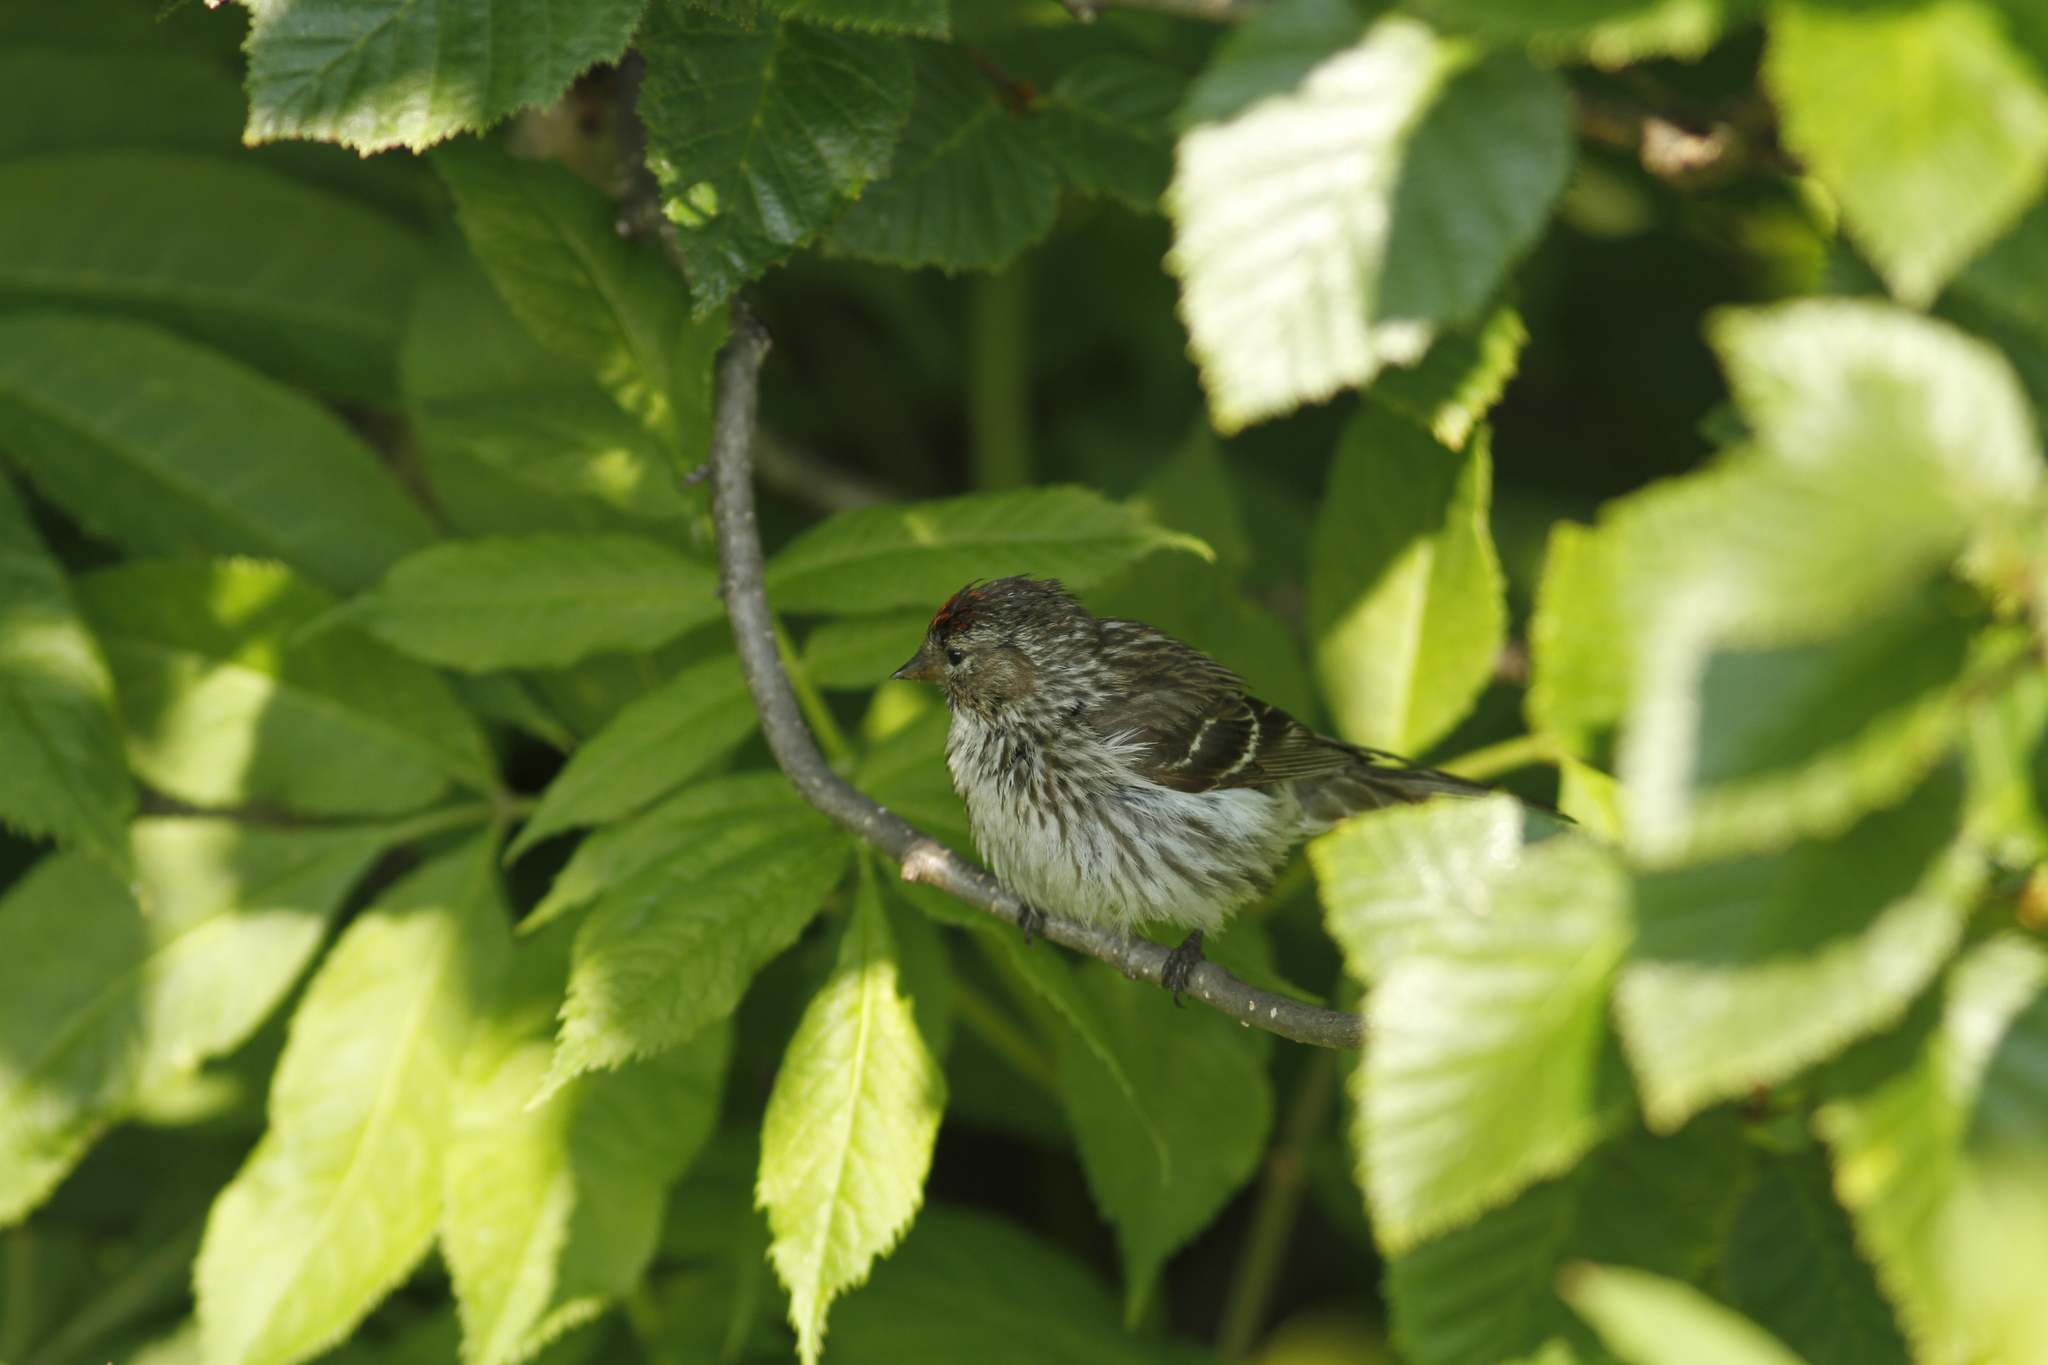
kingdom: Animalia
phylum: Chordata
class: Aves
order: Passeriformes
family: Fringillidae
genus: Acanthis
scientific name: Acanthis flammea
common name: Common redpoll
